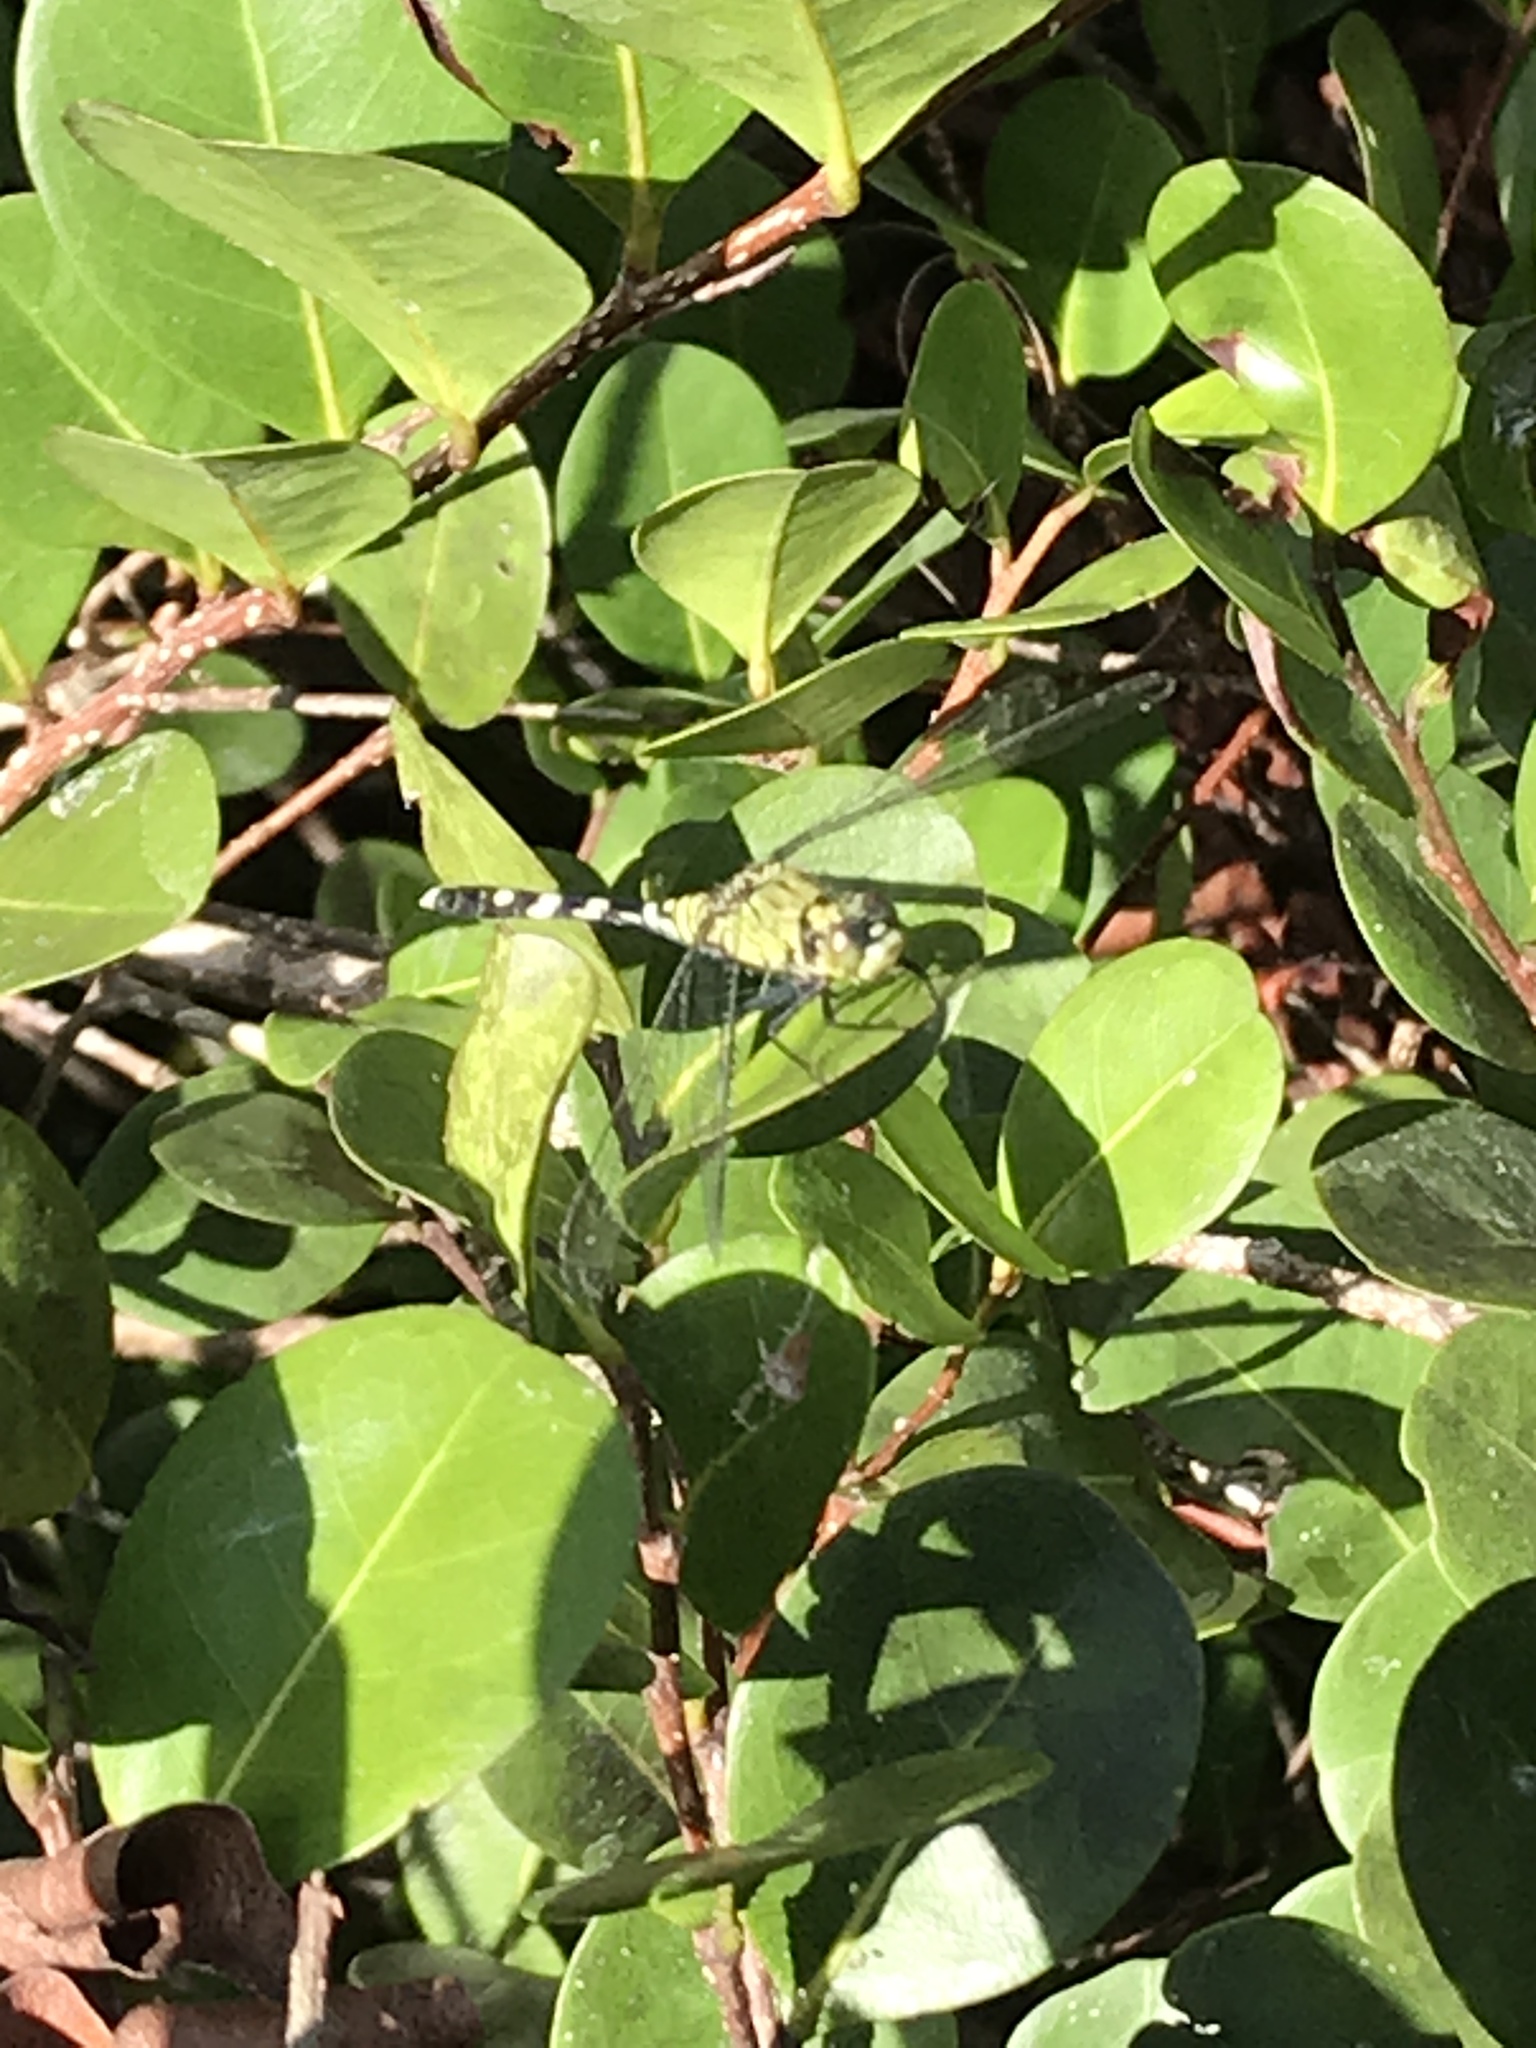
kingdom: Animalia
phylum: Arthropoda
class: Insecta
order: Odonata
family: Libellulidae
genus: Erythemis
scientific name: Erythemis simplicicollis
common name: Eastern pondhawk
